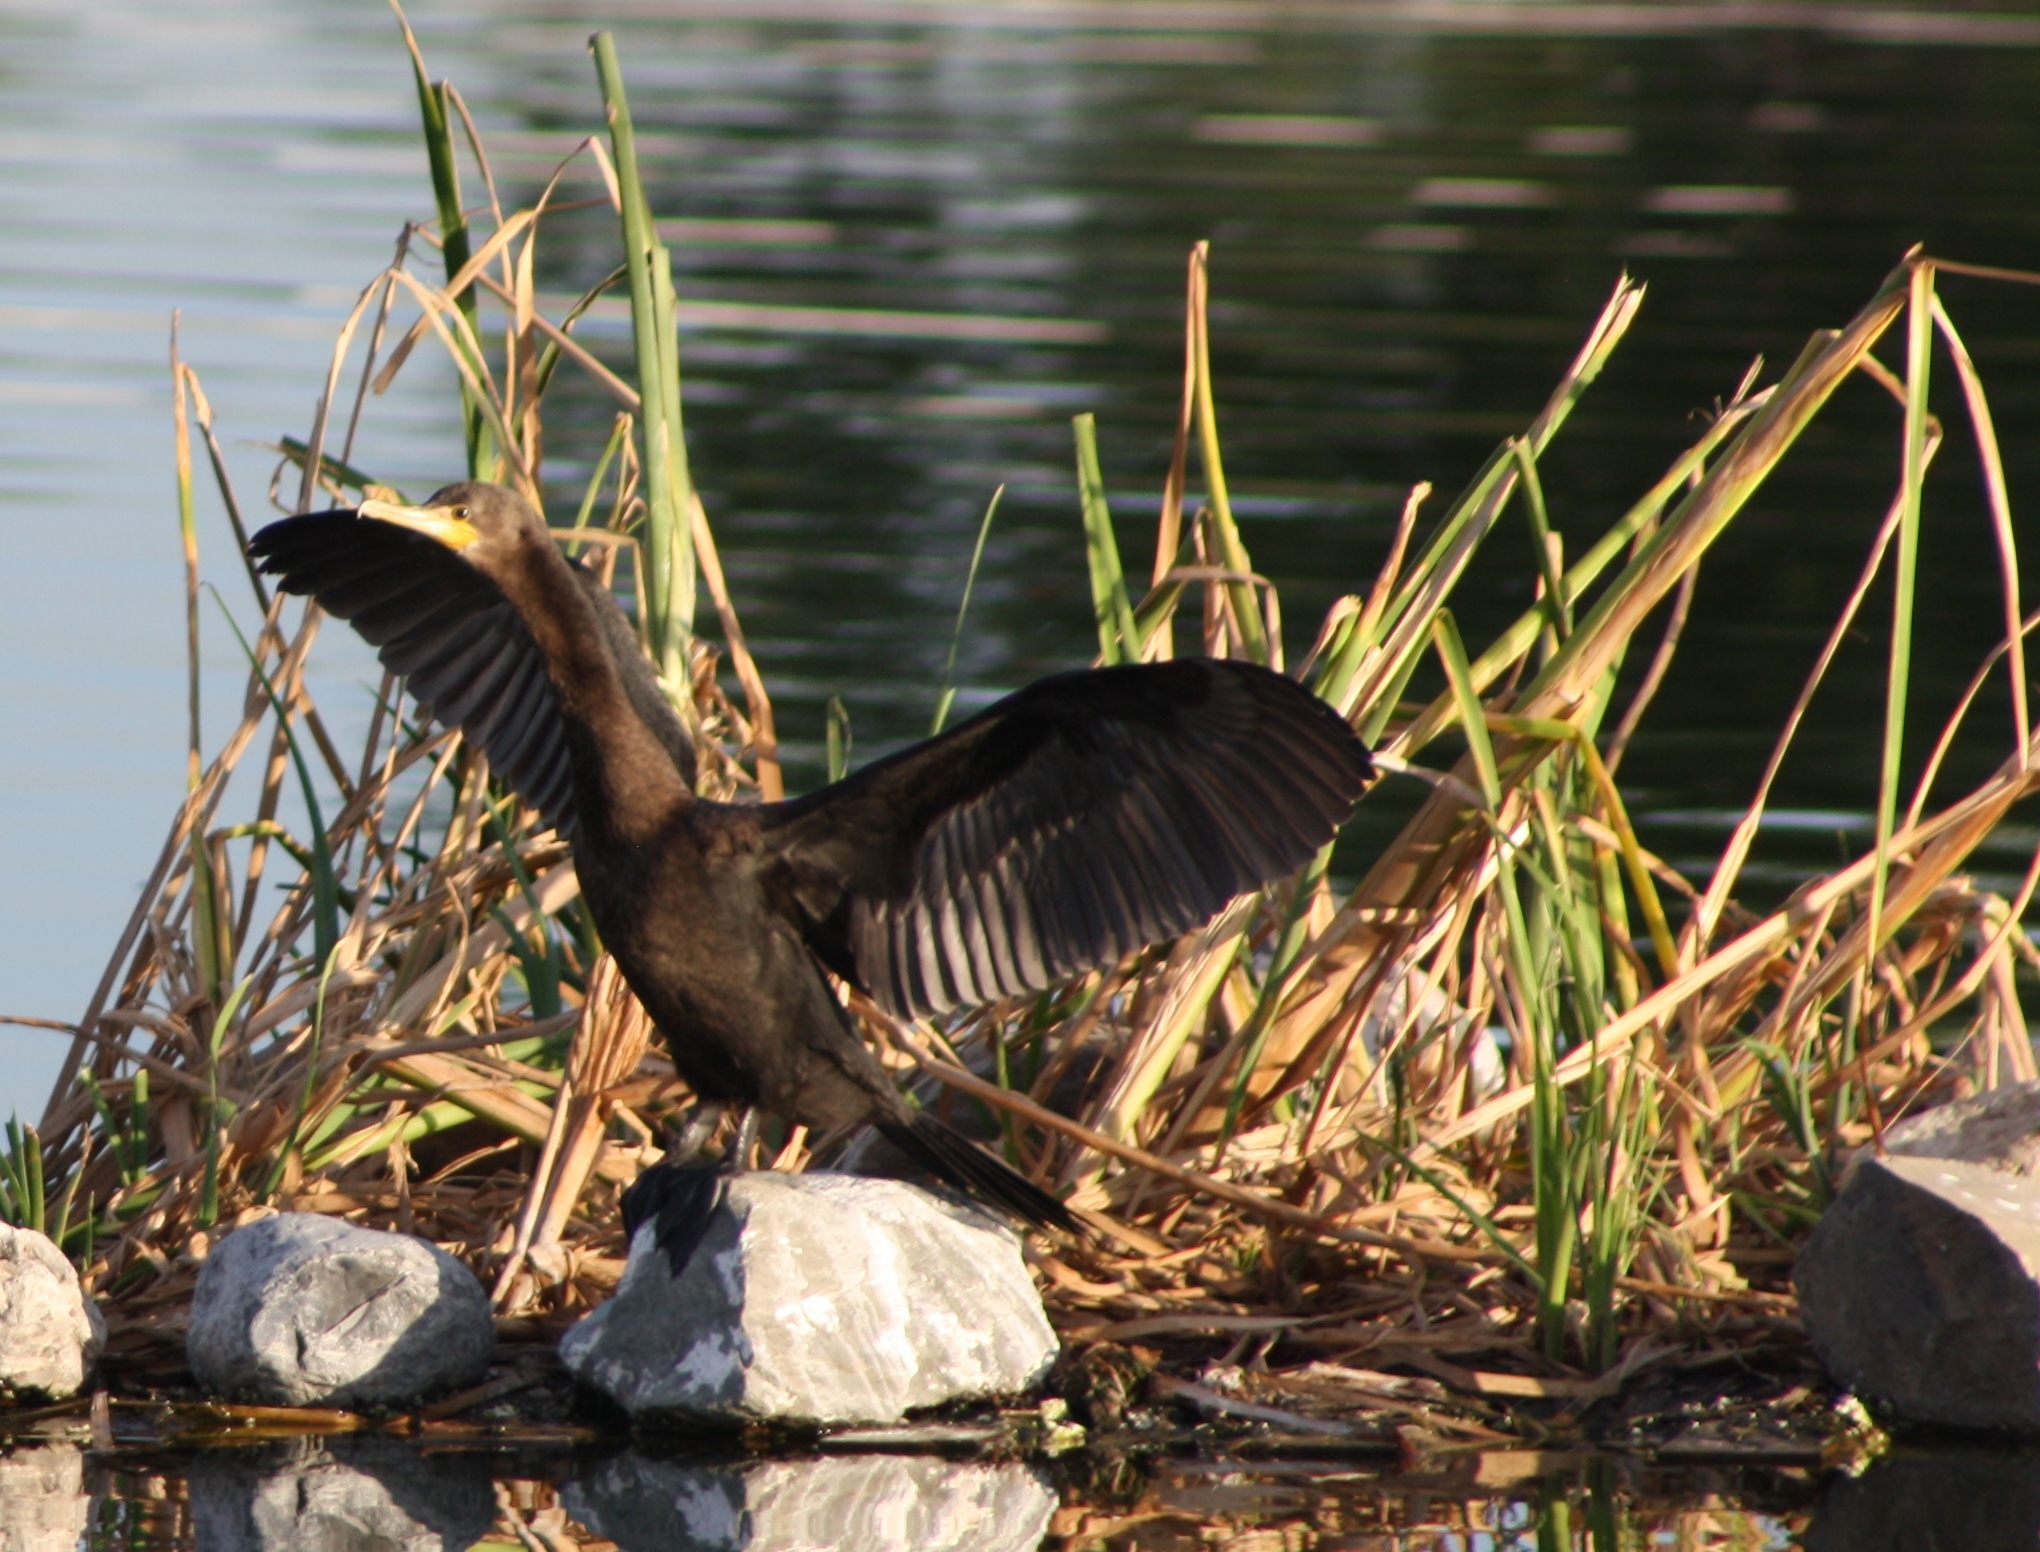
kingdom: Animalia
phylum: Chordata
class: Aves
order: Suliformes
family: Phalacrocoracidae
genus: Phalacrocorax
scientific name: Phalacrocorax auritus
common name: Double-crested cormorant
